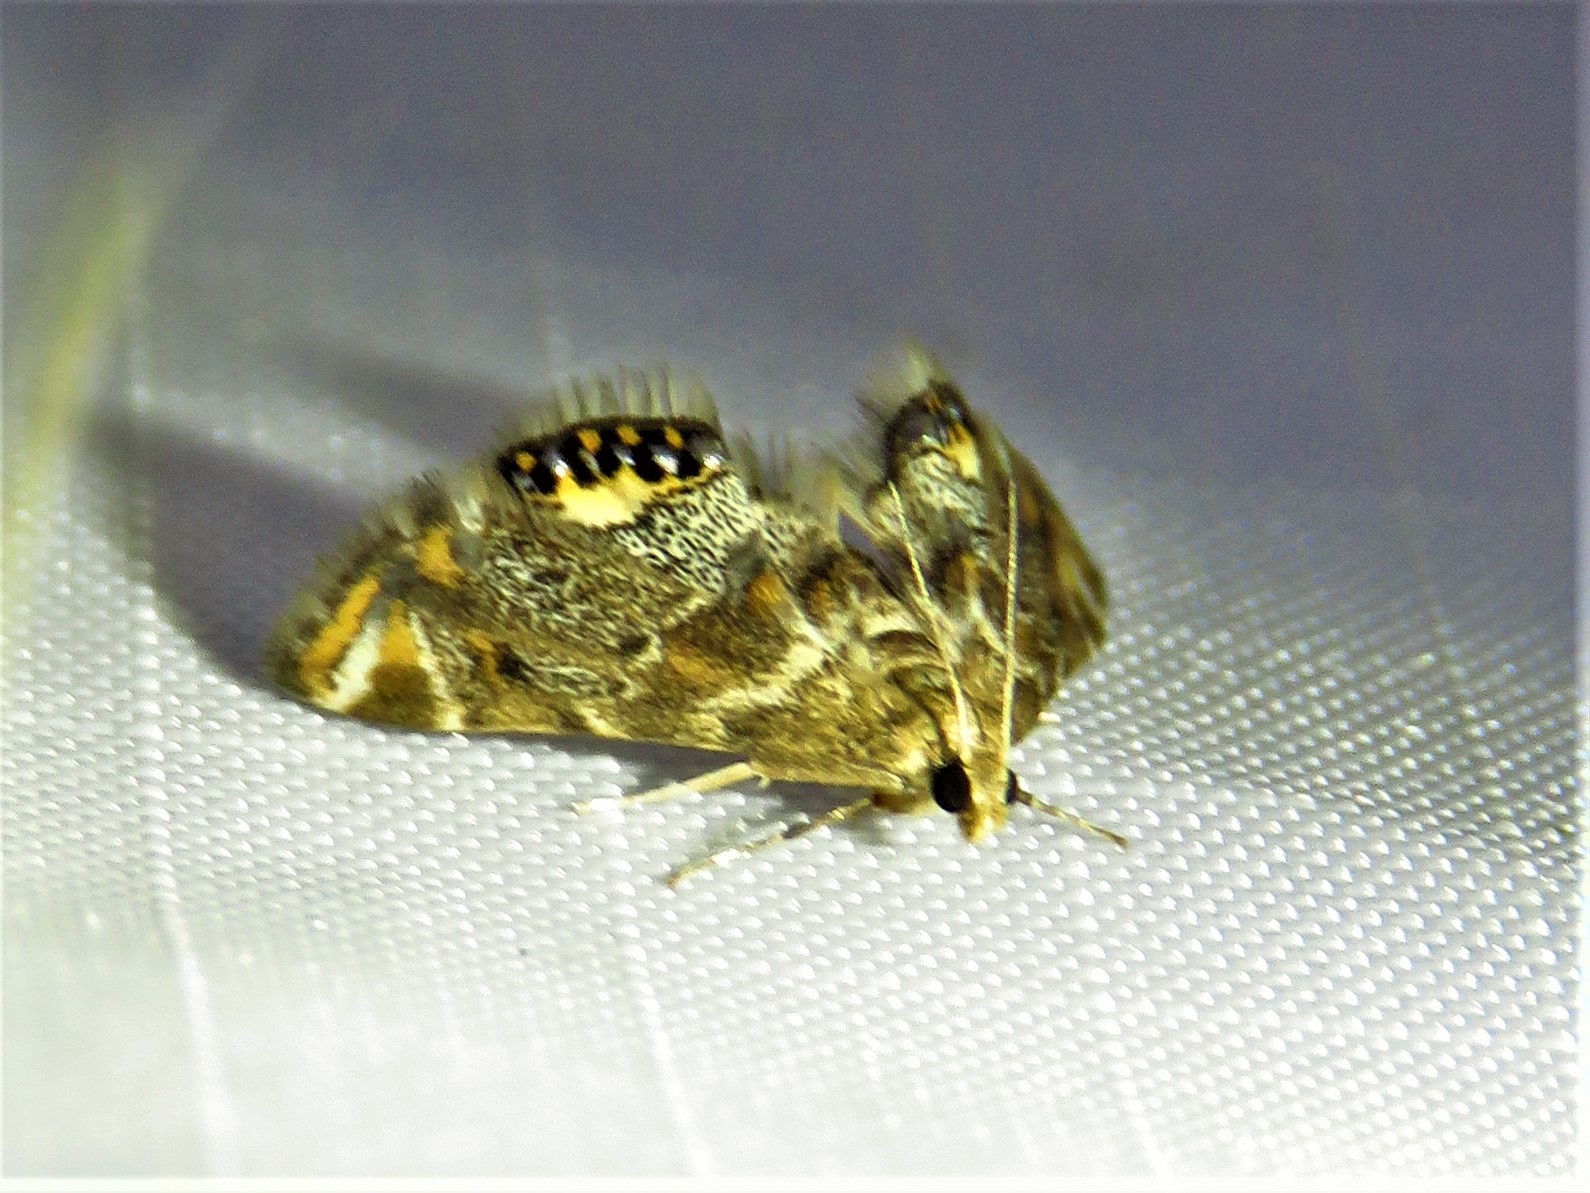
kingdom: Animalia
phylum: Arthropoda
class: Insecta
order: Lepidoptera
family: Crambidae
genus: Petrophila
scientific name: Petrophila fulicalis
